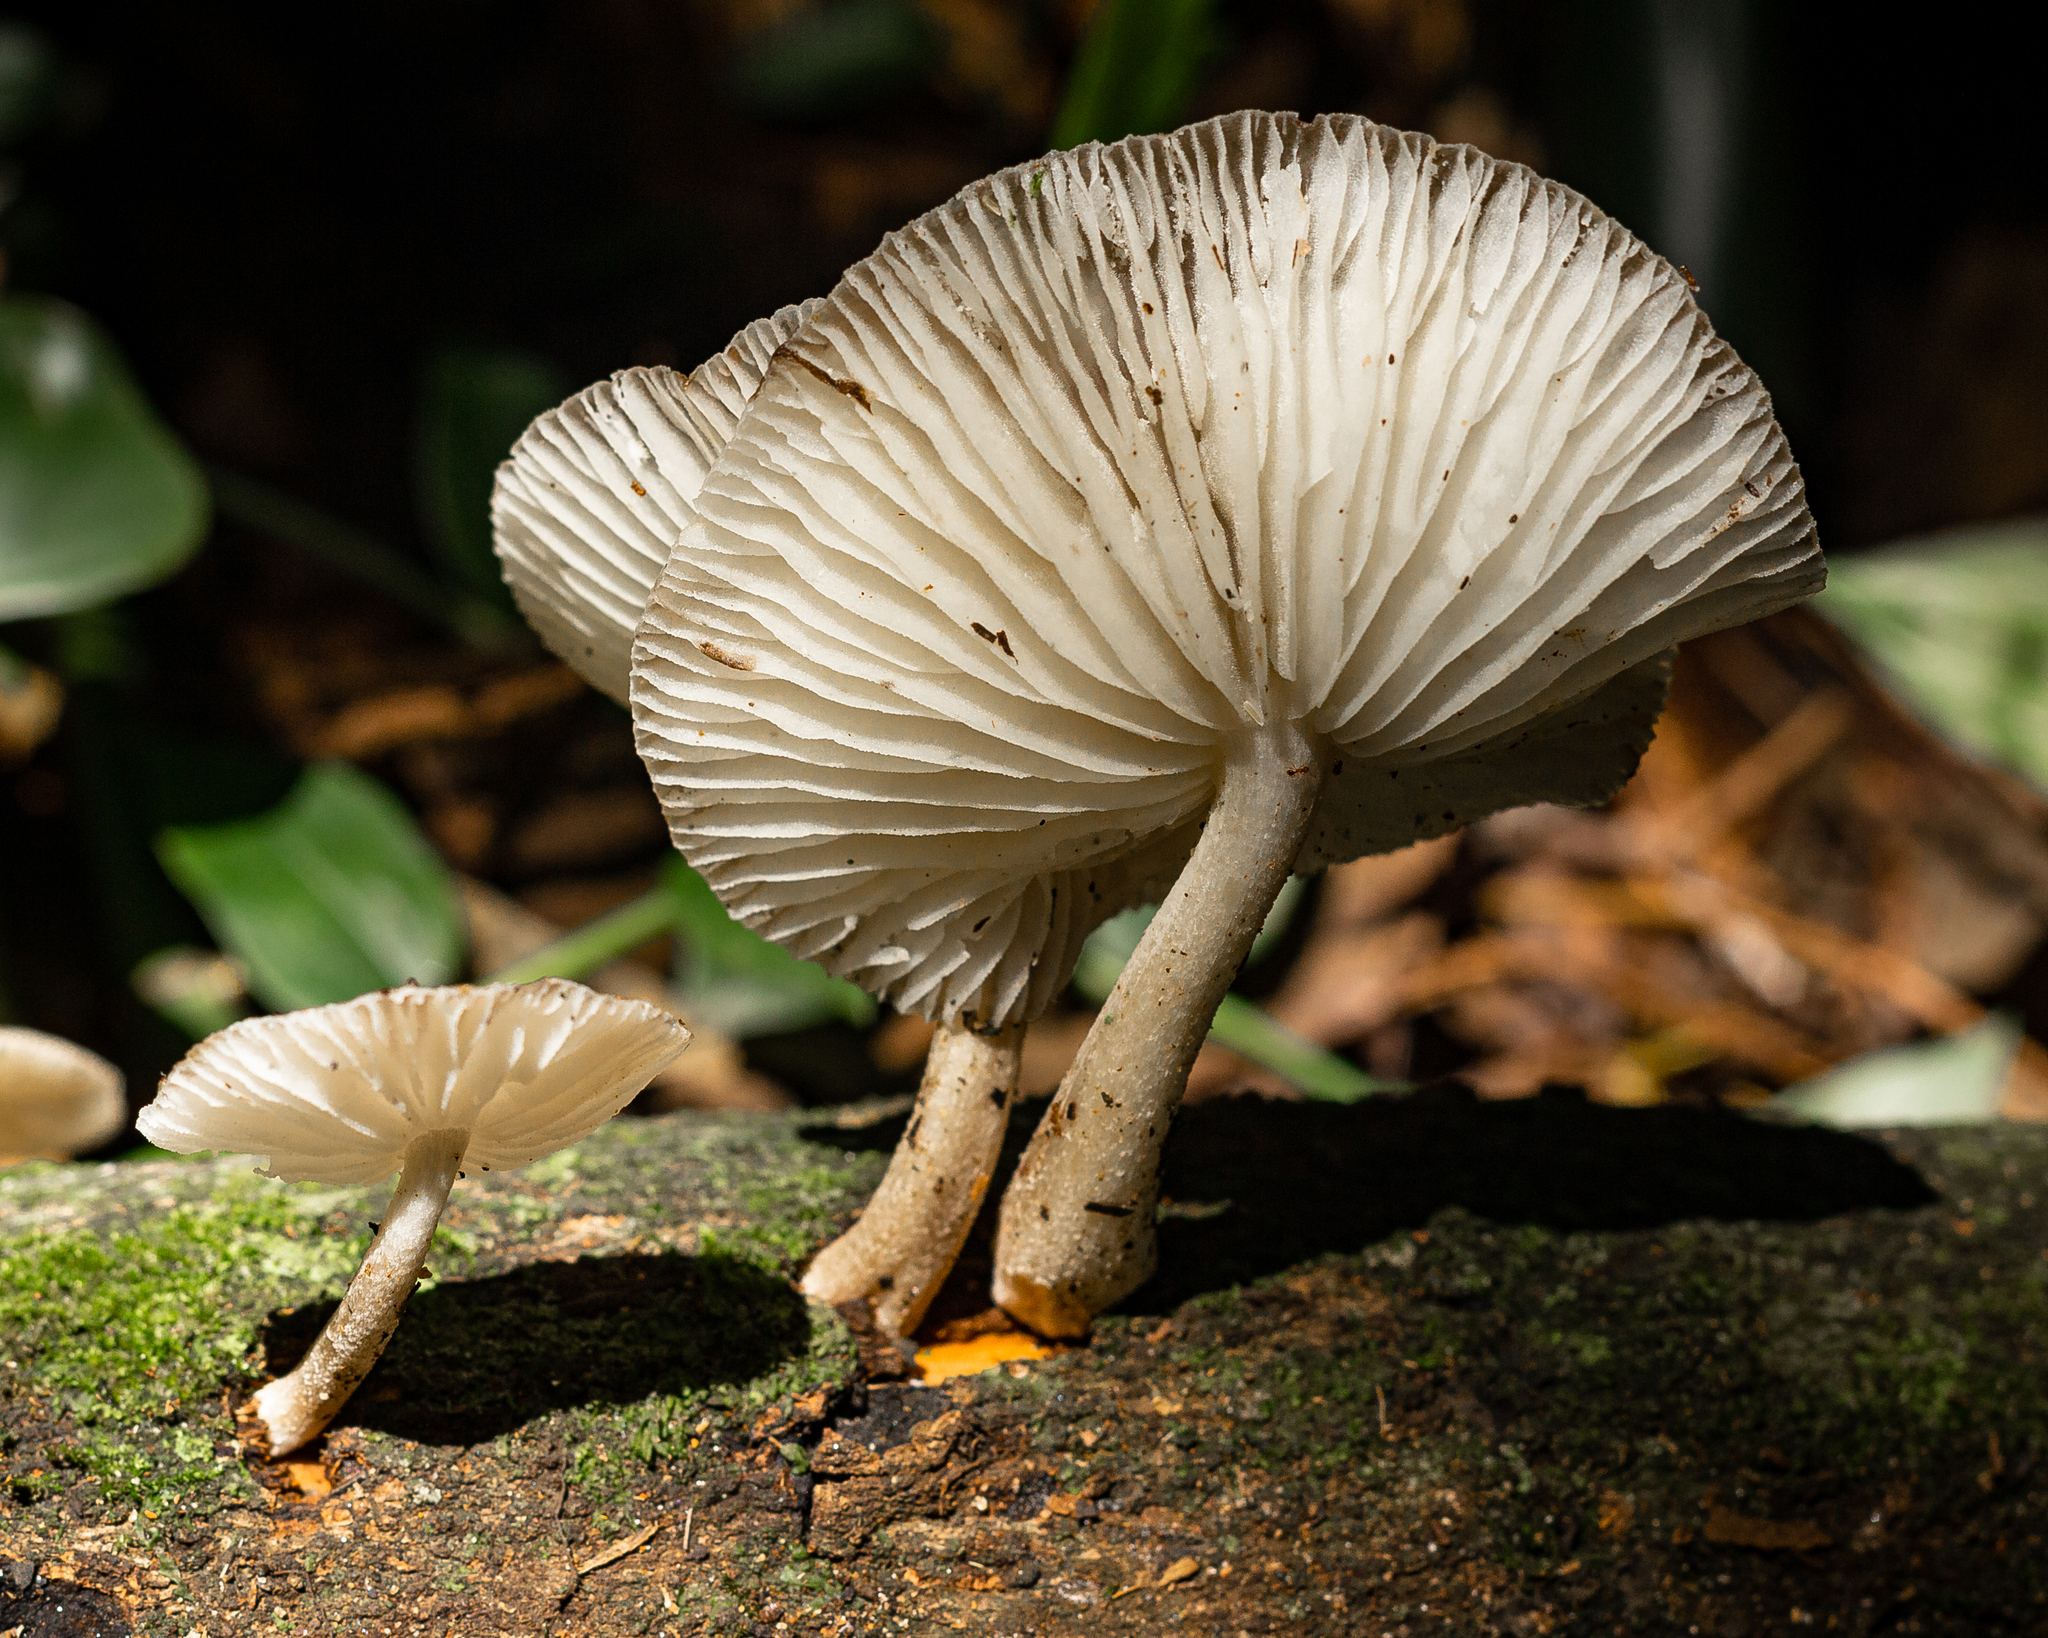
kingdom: Fungi
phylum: Basidiomycota
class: Agaricomycetes
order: Agaricales
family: Physalacriaceae
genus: Oudemansiella
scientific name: Oudemansiella platensis
